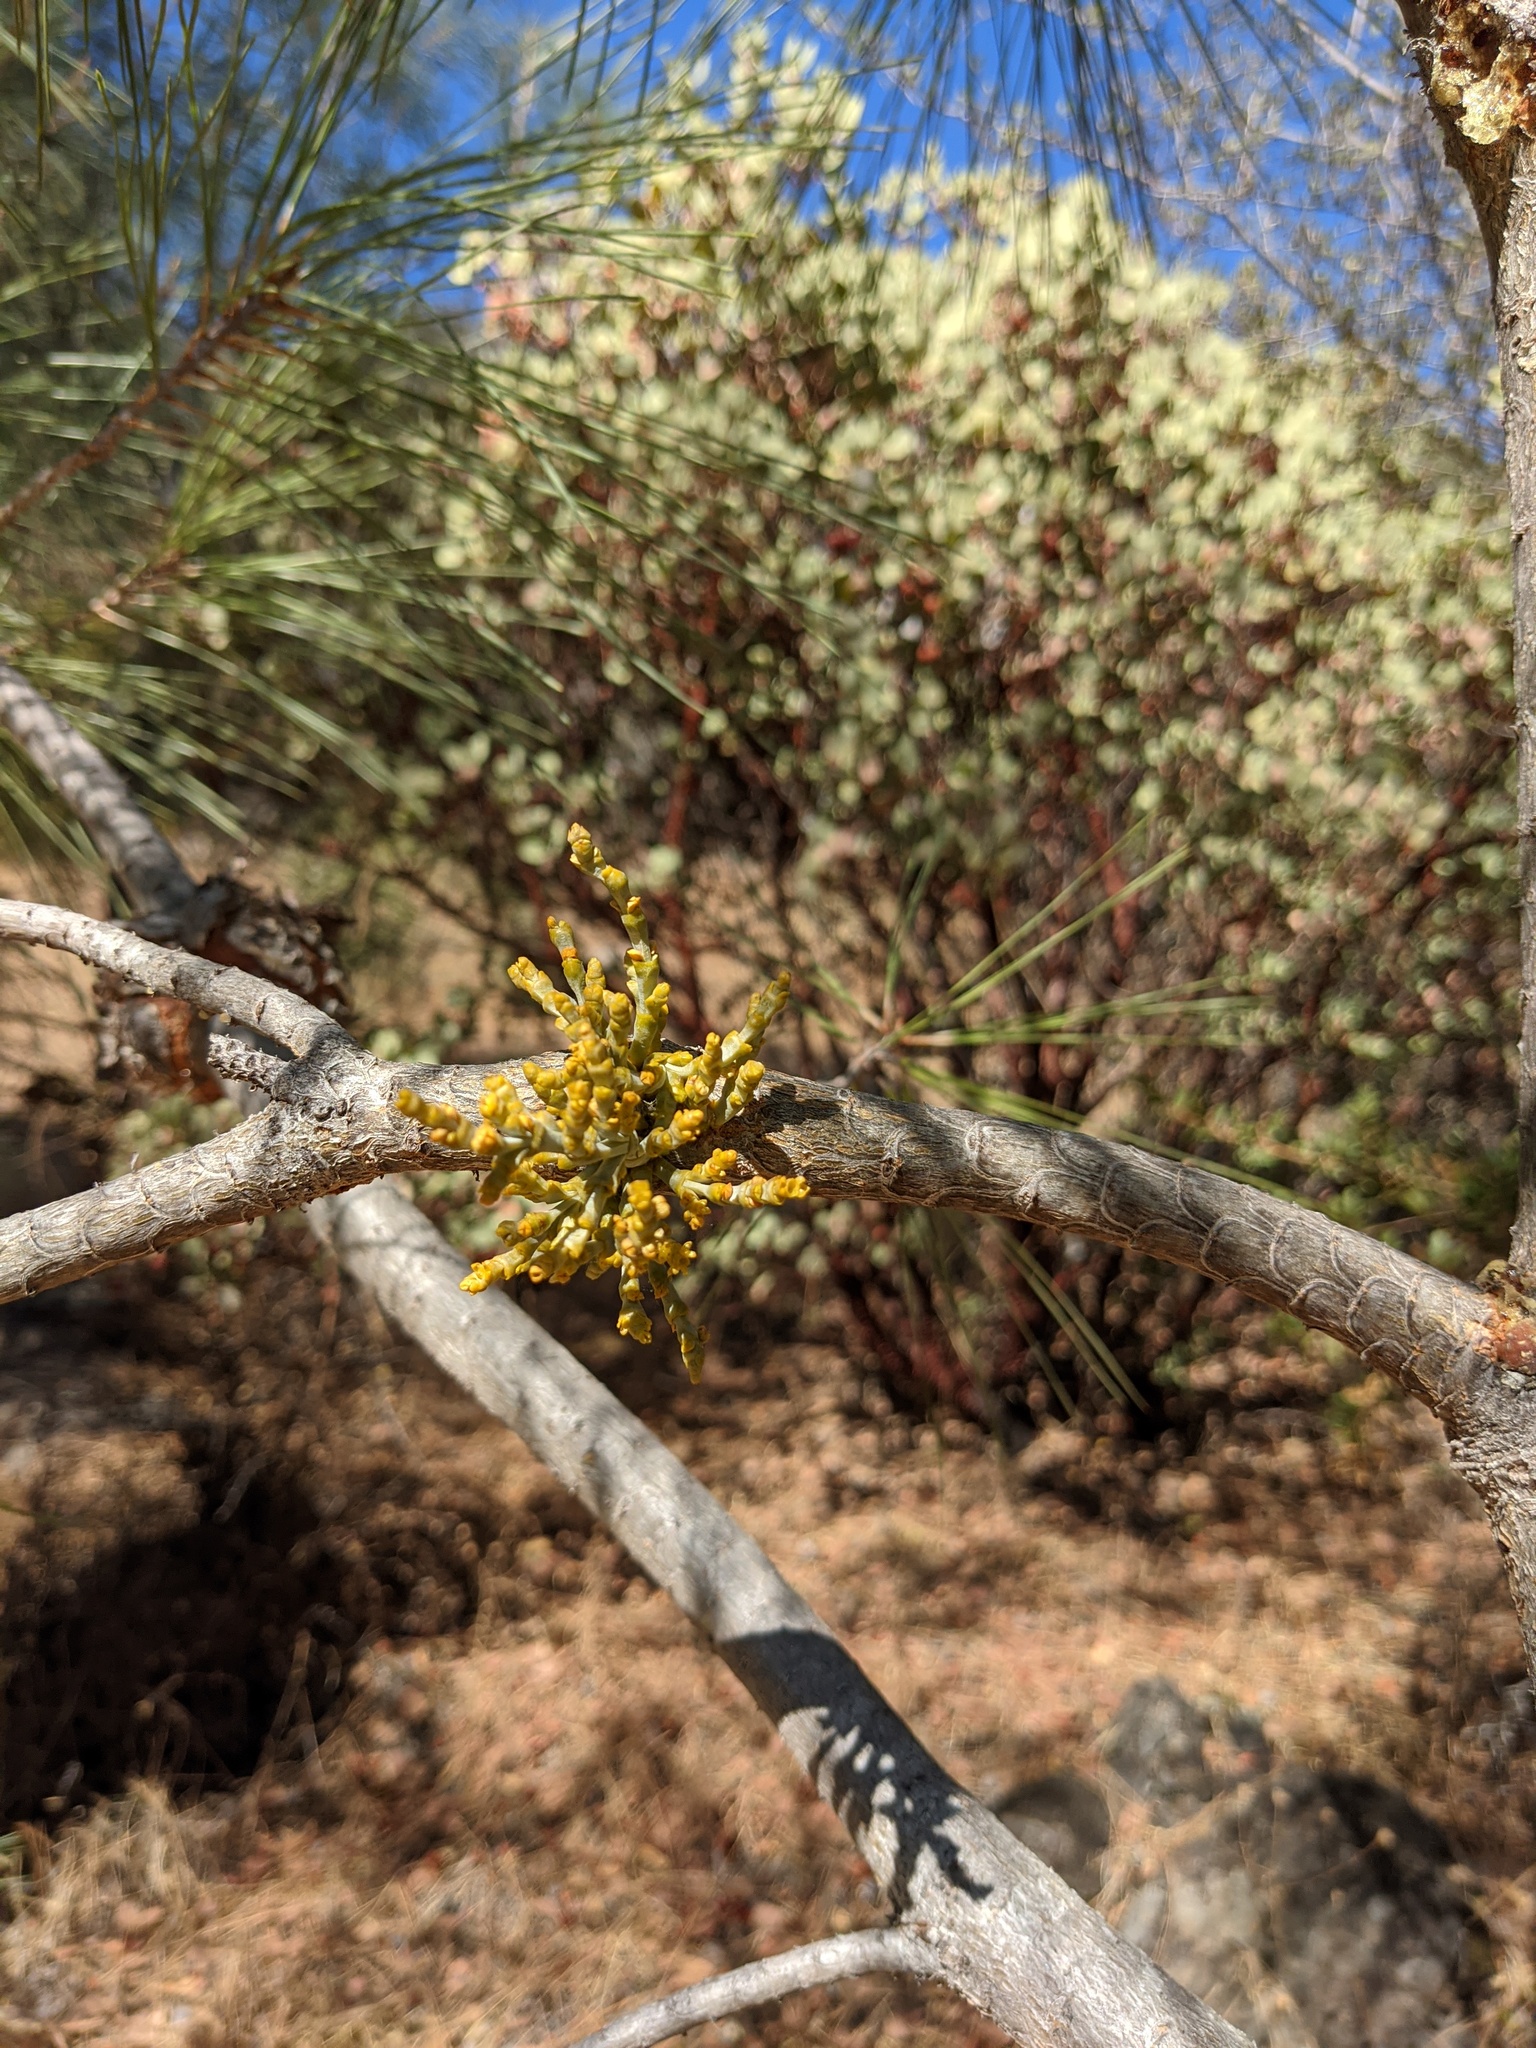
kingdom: Plantae
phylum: Tracheophyta
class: Magnoliopsida
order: Santalales
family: Viscaceae
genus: Arceuthobium
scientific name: Arceuthobium campylopodum
